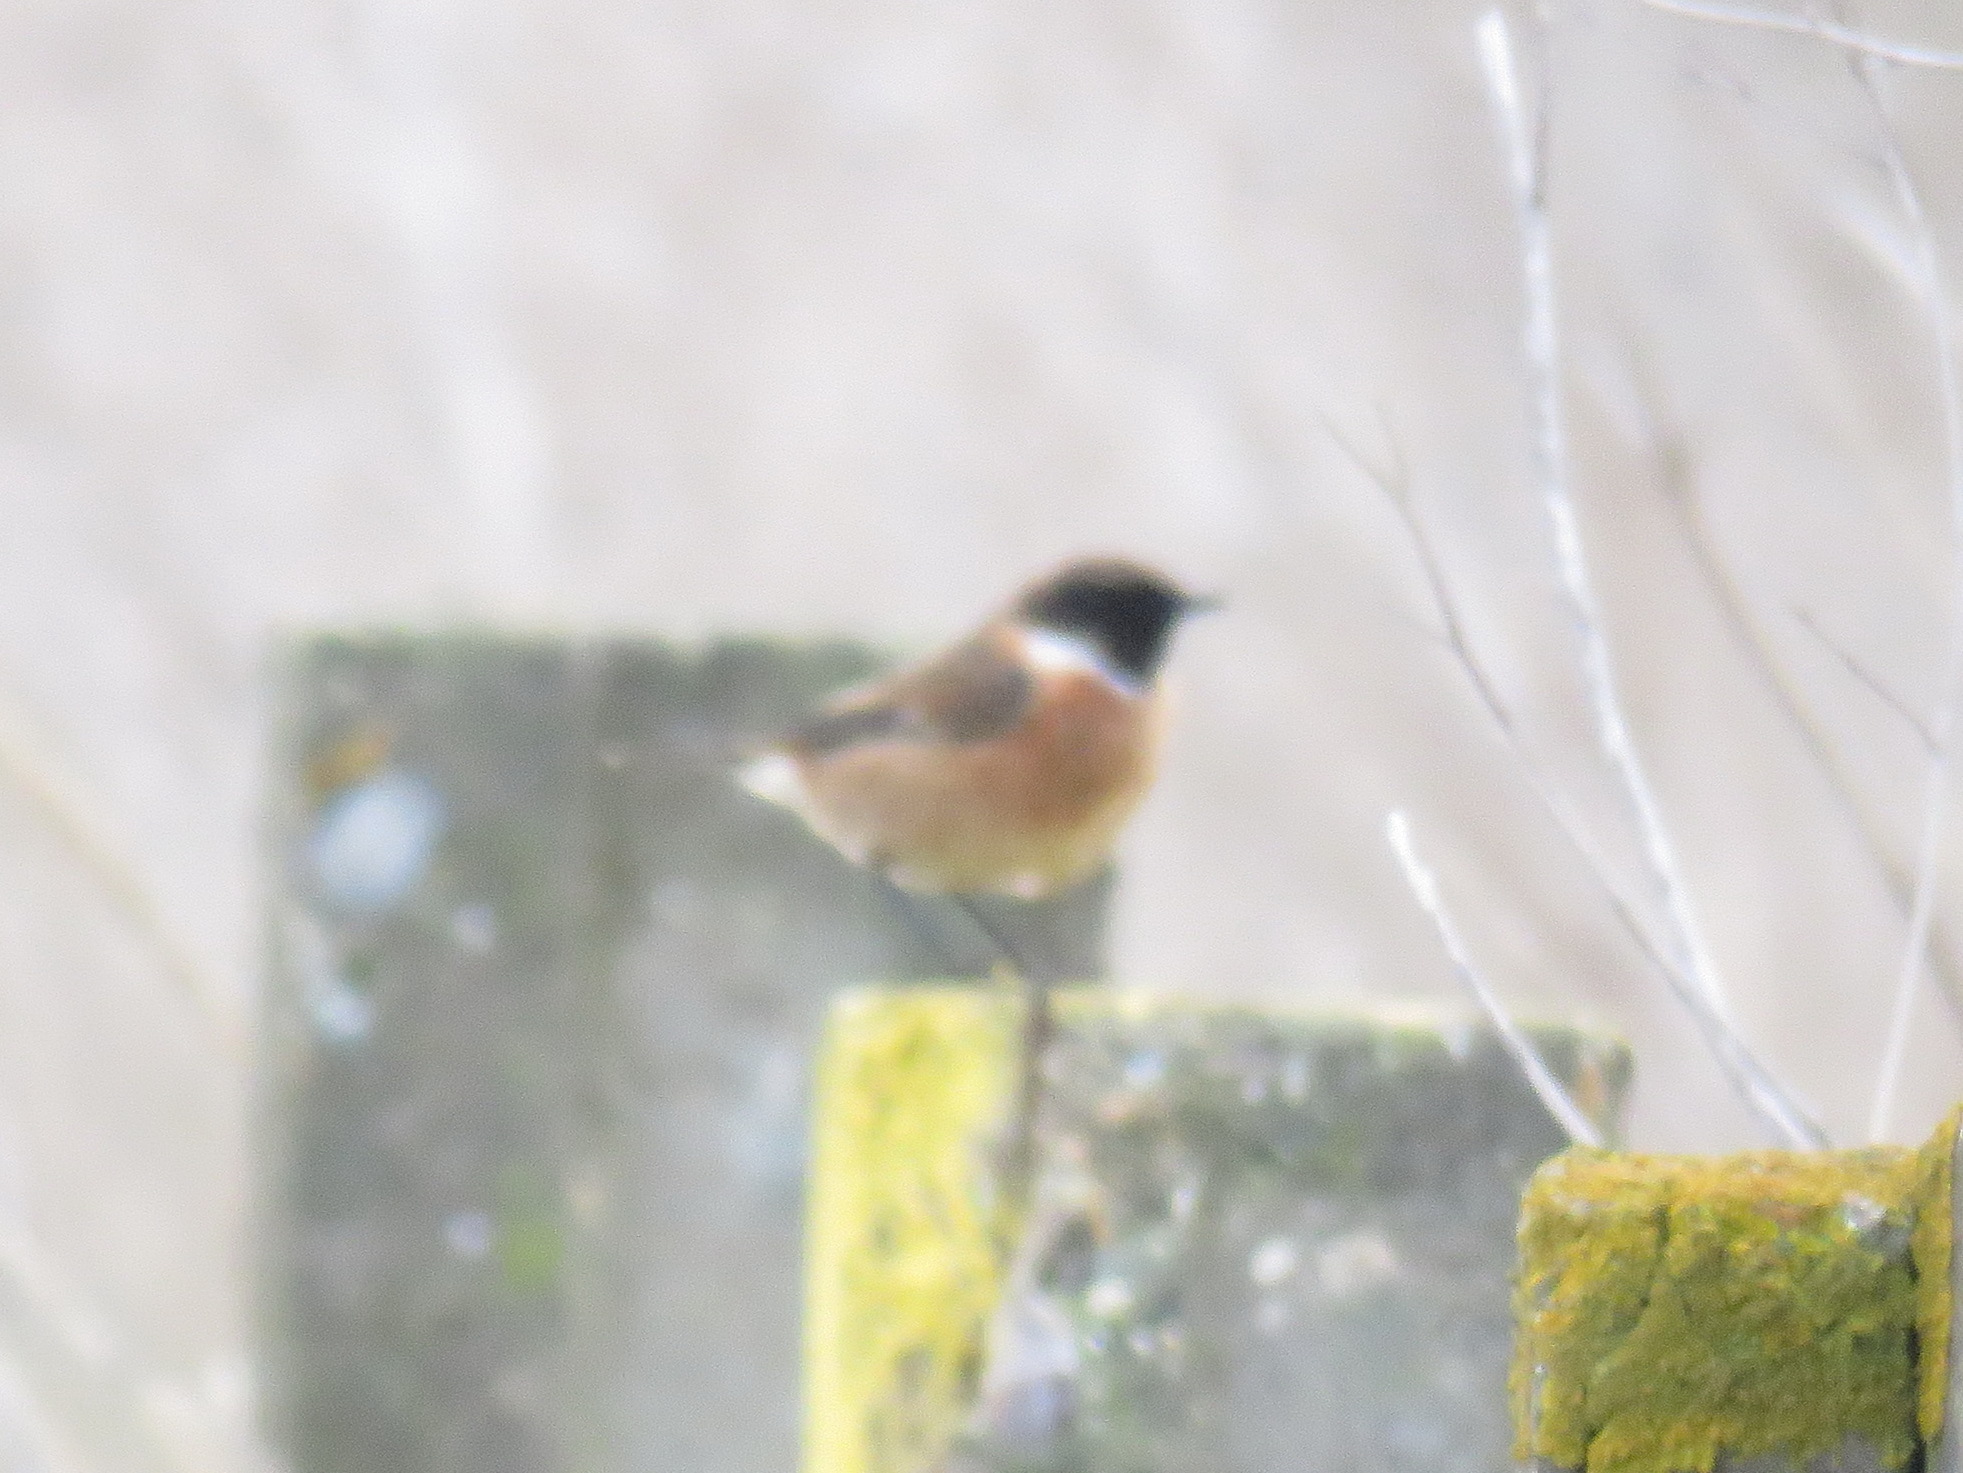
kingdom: Animalia
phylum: Chordata
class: Aves
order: Passeriformes
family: Muscicapidae
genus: Saxicola
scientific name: Saxicola rubicola
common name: European stonechat
